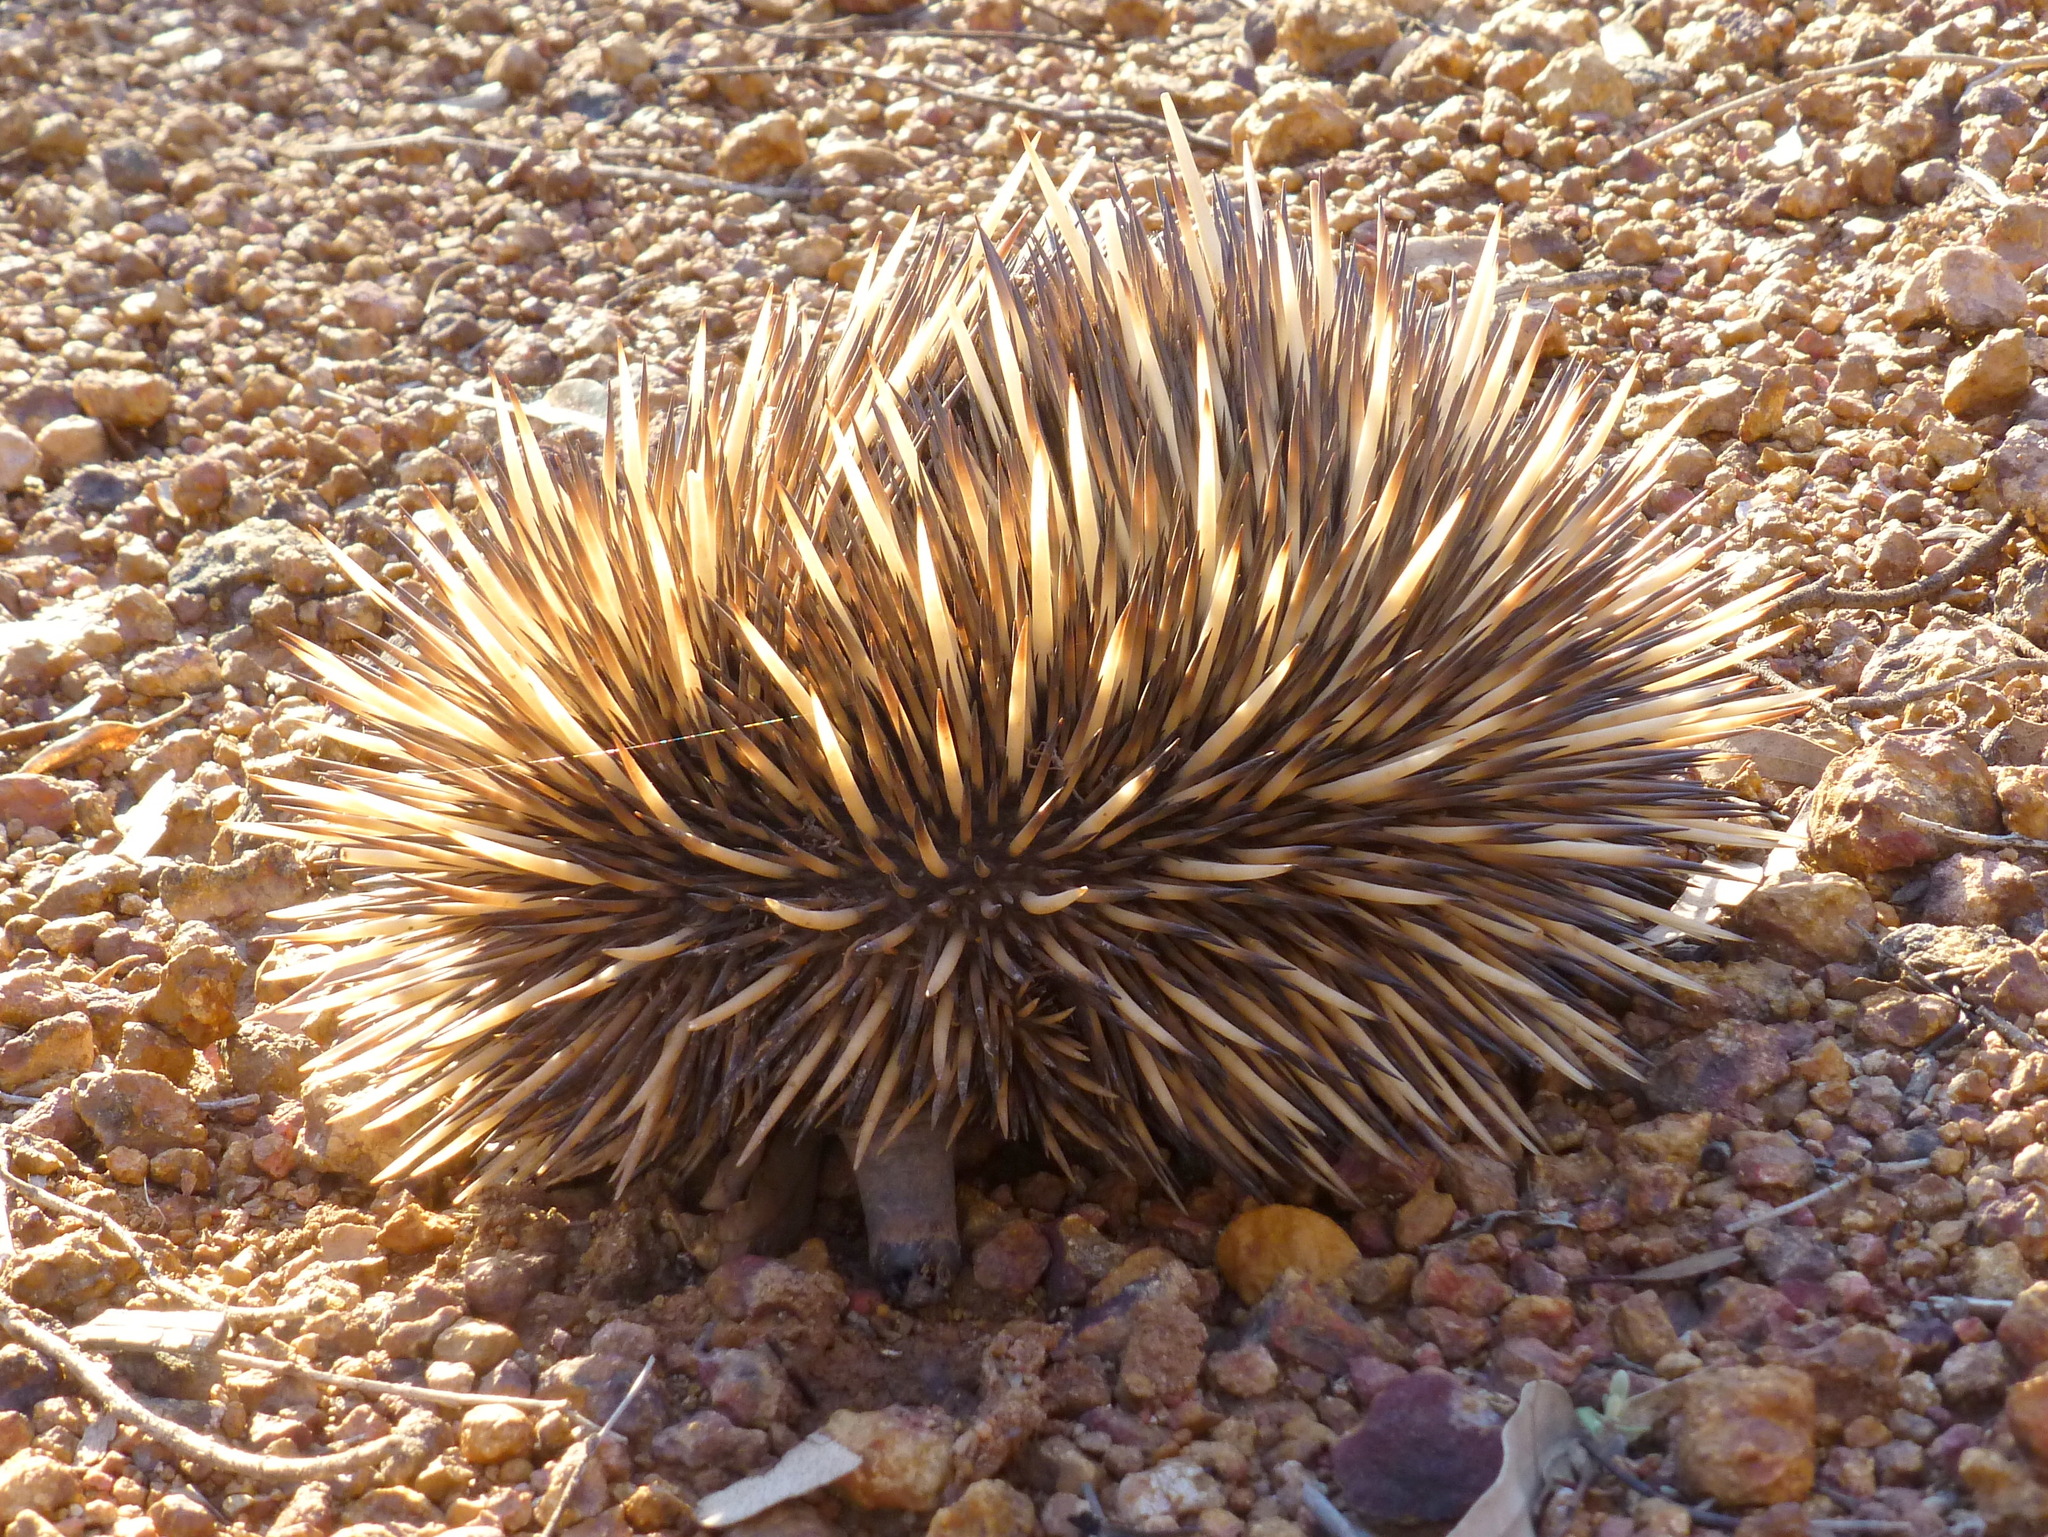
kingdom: Animalia
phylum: Chordata
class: Mammalia
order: Monotremata
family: Tachyglossidae
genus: Tachyglossus
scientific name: Tachyglossus aculeatus
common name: Short-beaked echidna
